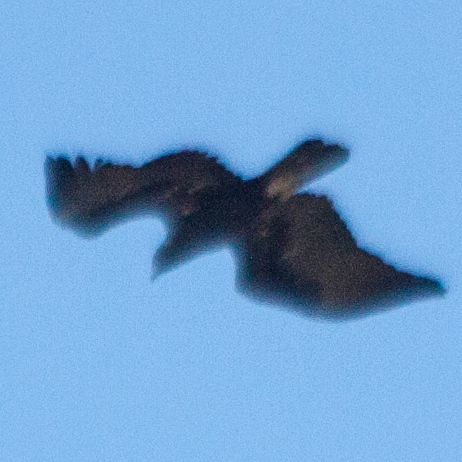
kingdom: Animalia
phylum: Chordata
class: Aves
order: Accipitriformes
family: Accipitridae
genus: Aquila
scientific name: Aquila chrysaetos
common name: Golden eagle
